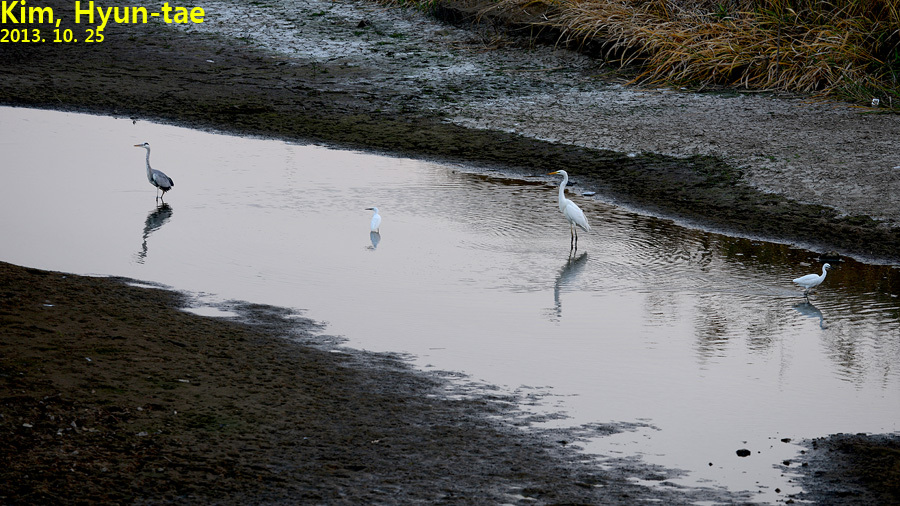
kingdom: Animalia
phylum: Chordata
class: Aves
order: Pelecaniformes
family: Ardeidae
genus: Ardea
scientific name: Ardea alba
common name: Great egret
